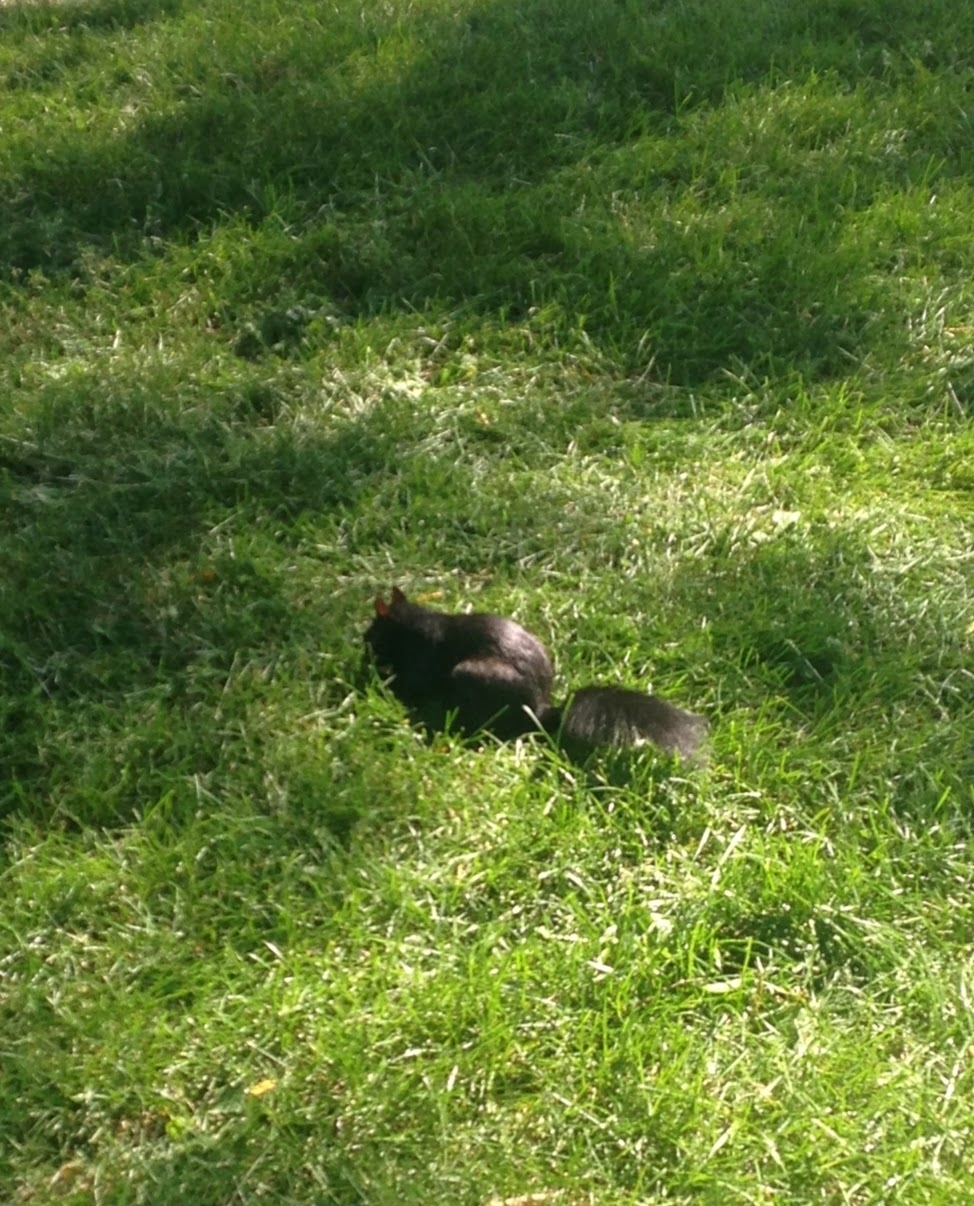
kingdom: Animalia
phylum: Chordata
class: Mammalia
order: Rodentia
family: Sciuridae
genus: Sciurus
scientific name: Sciurus carolinensis
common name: Eastern gray squirrel
